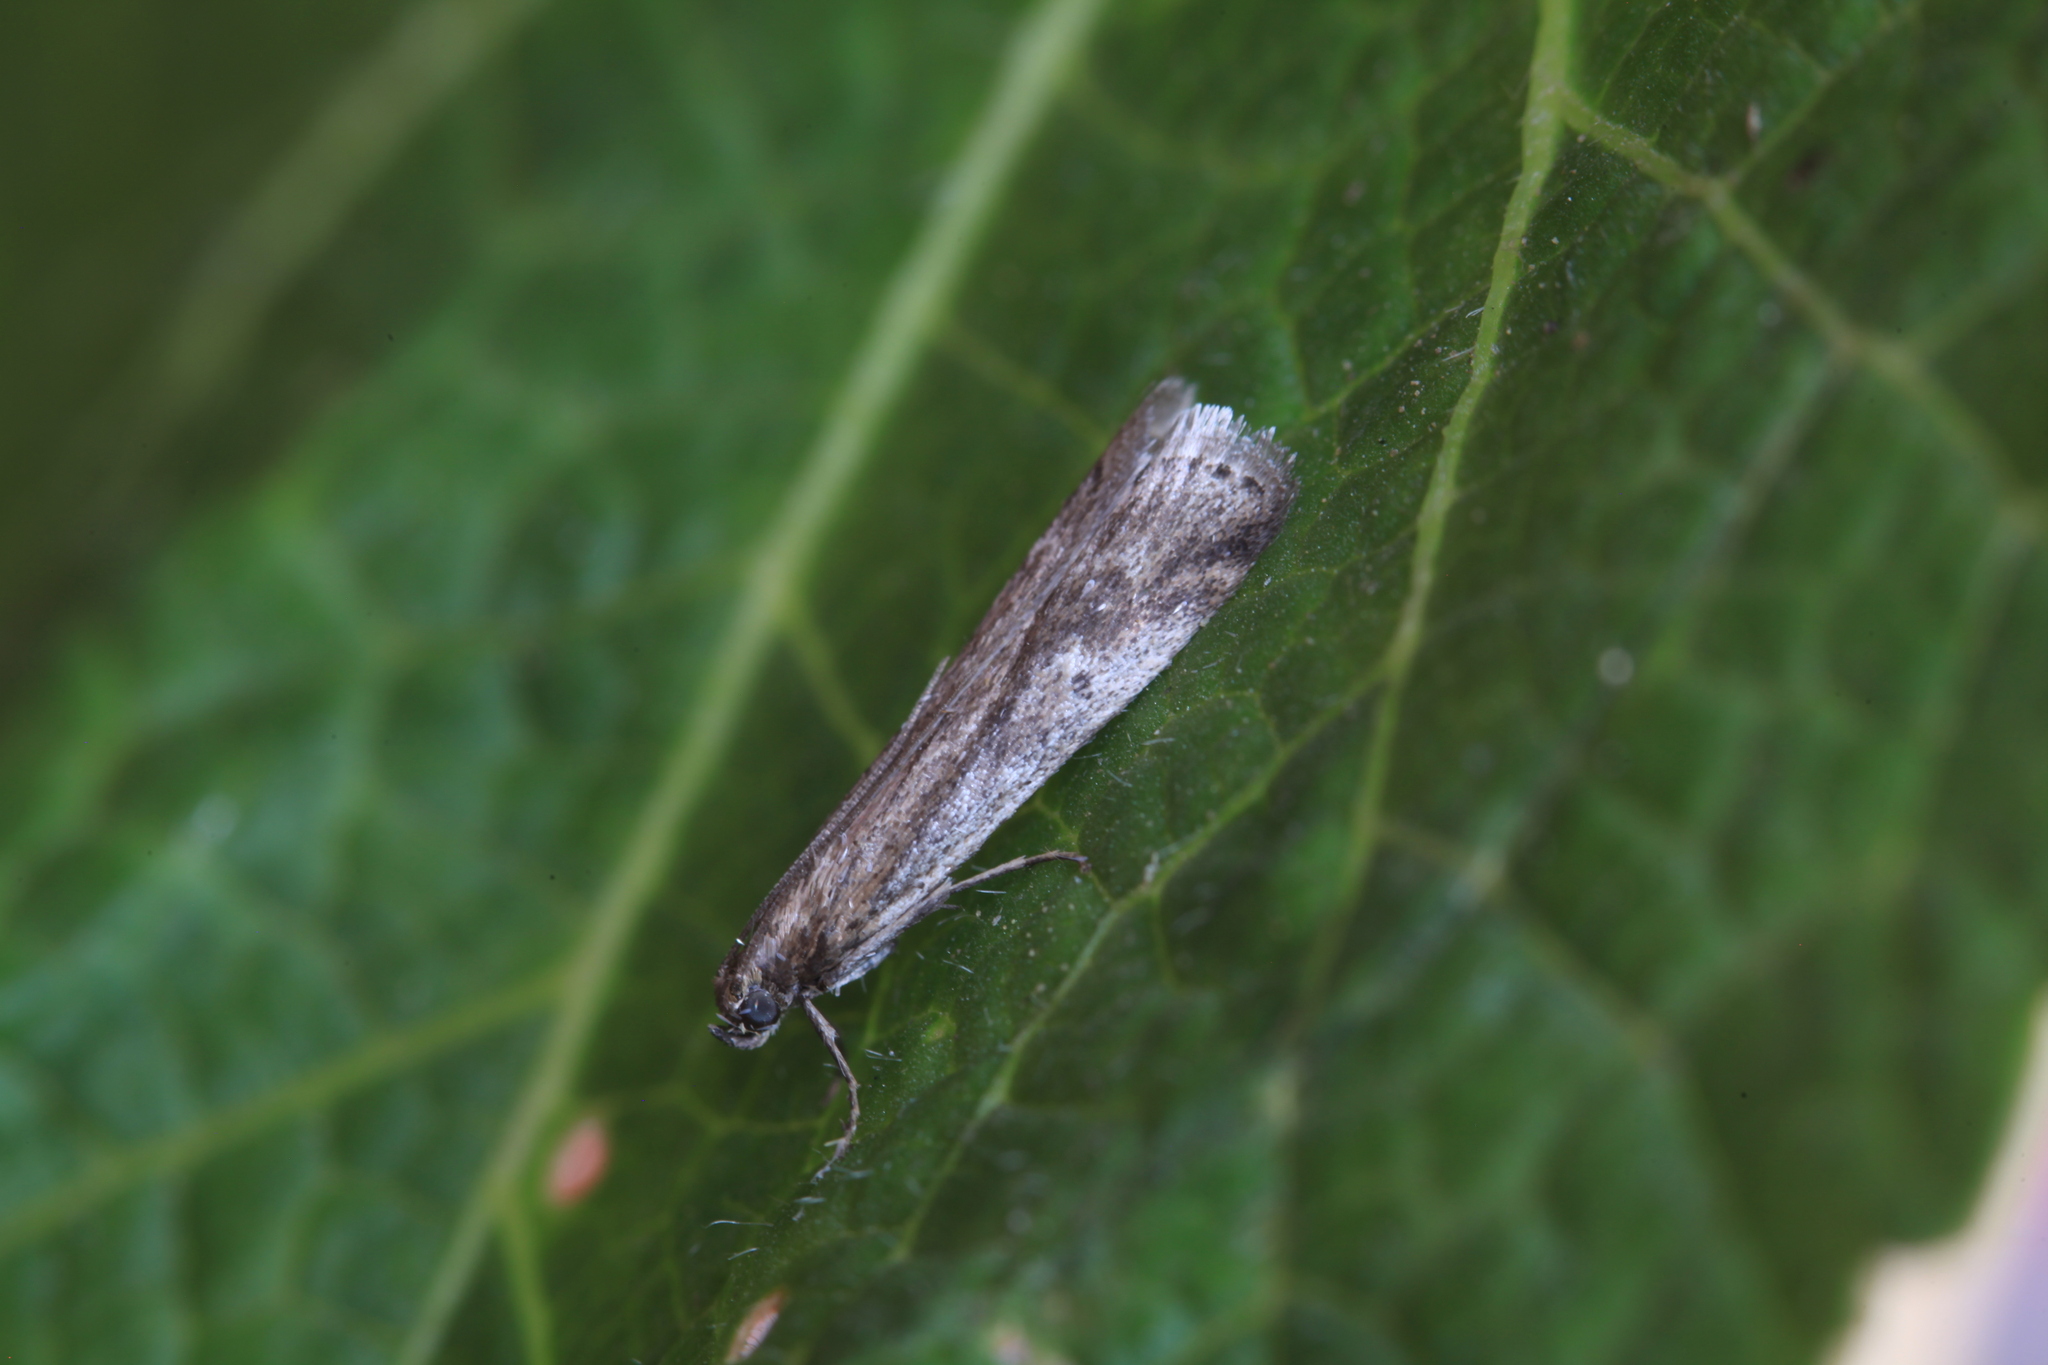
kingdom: Animalia
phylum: Arthropoda
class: Insecta
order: Lepidoptera
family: Pyralidae
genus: Euzophera
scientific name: Euzophera cinerosella
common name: Wormwood knot-horn
